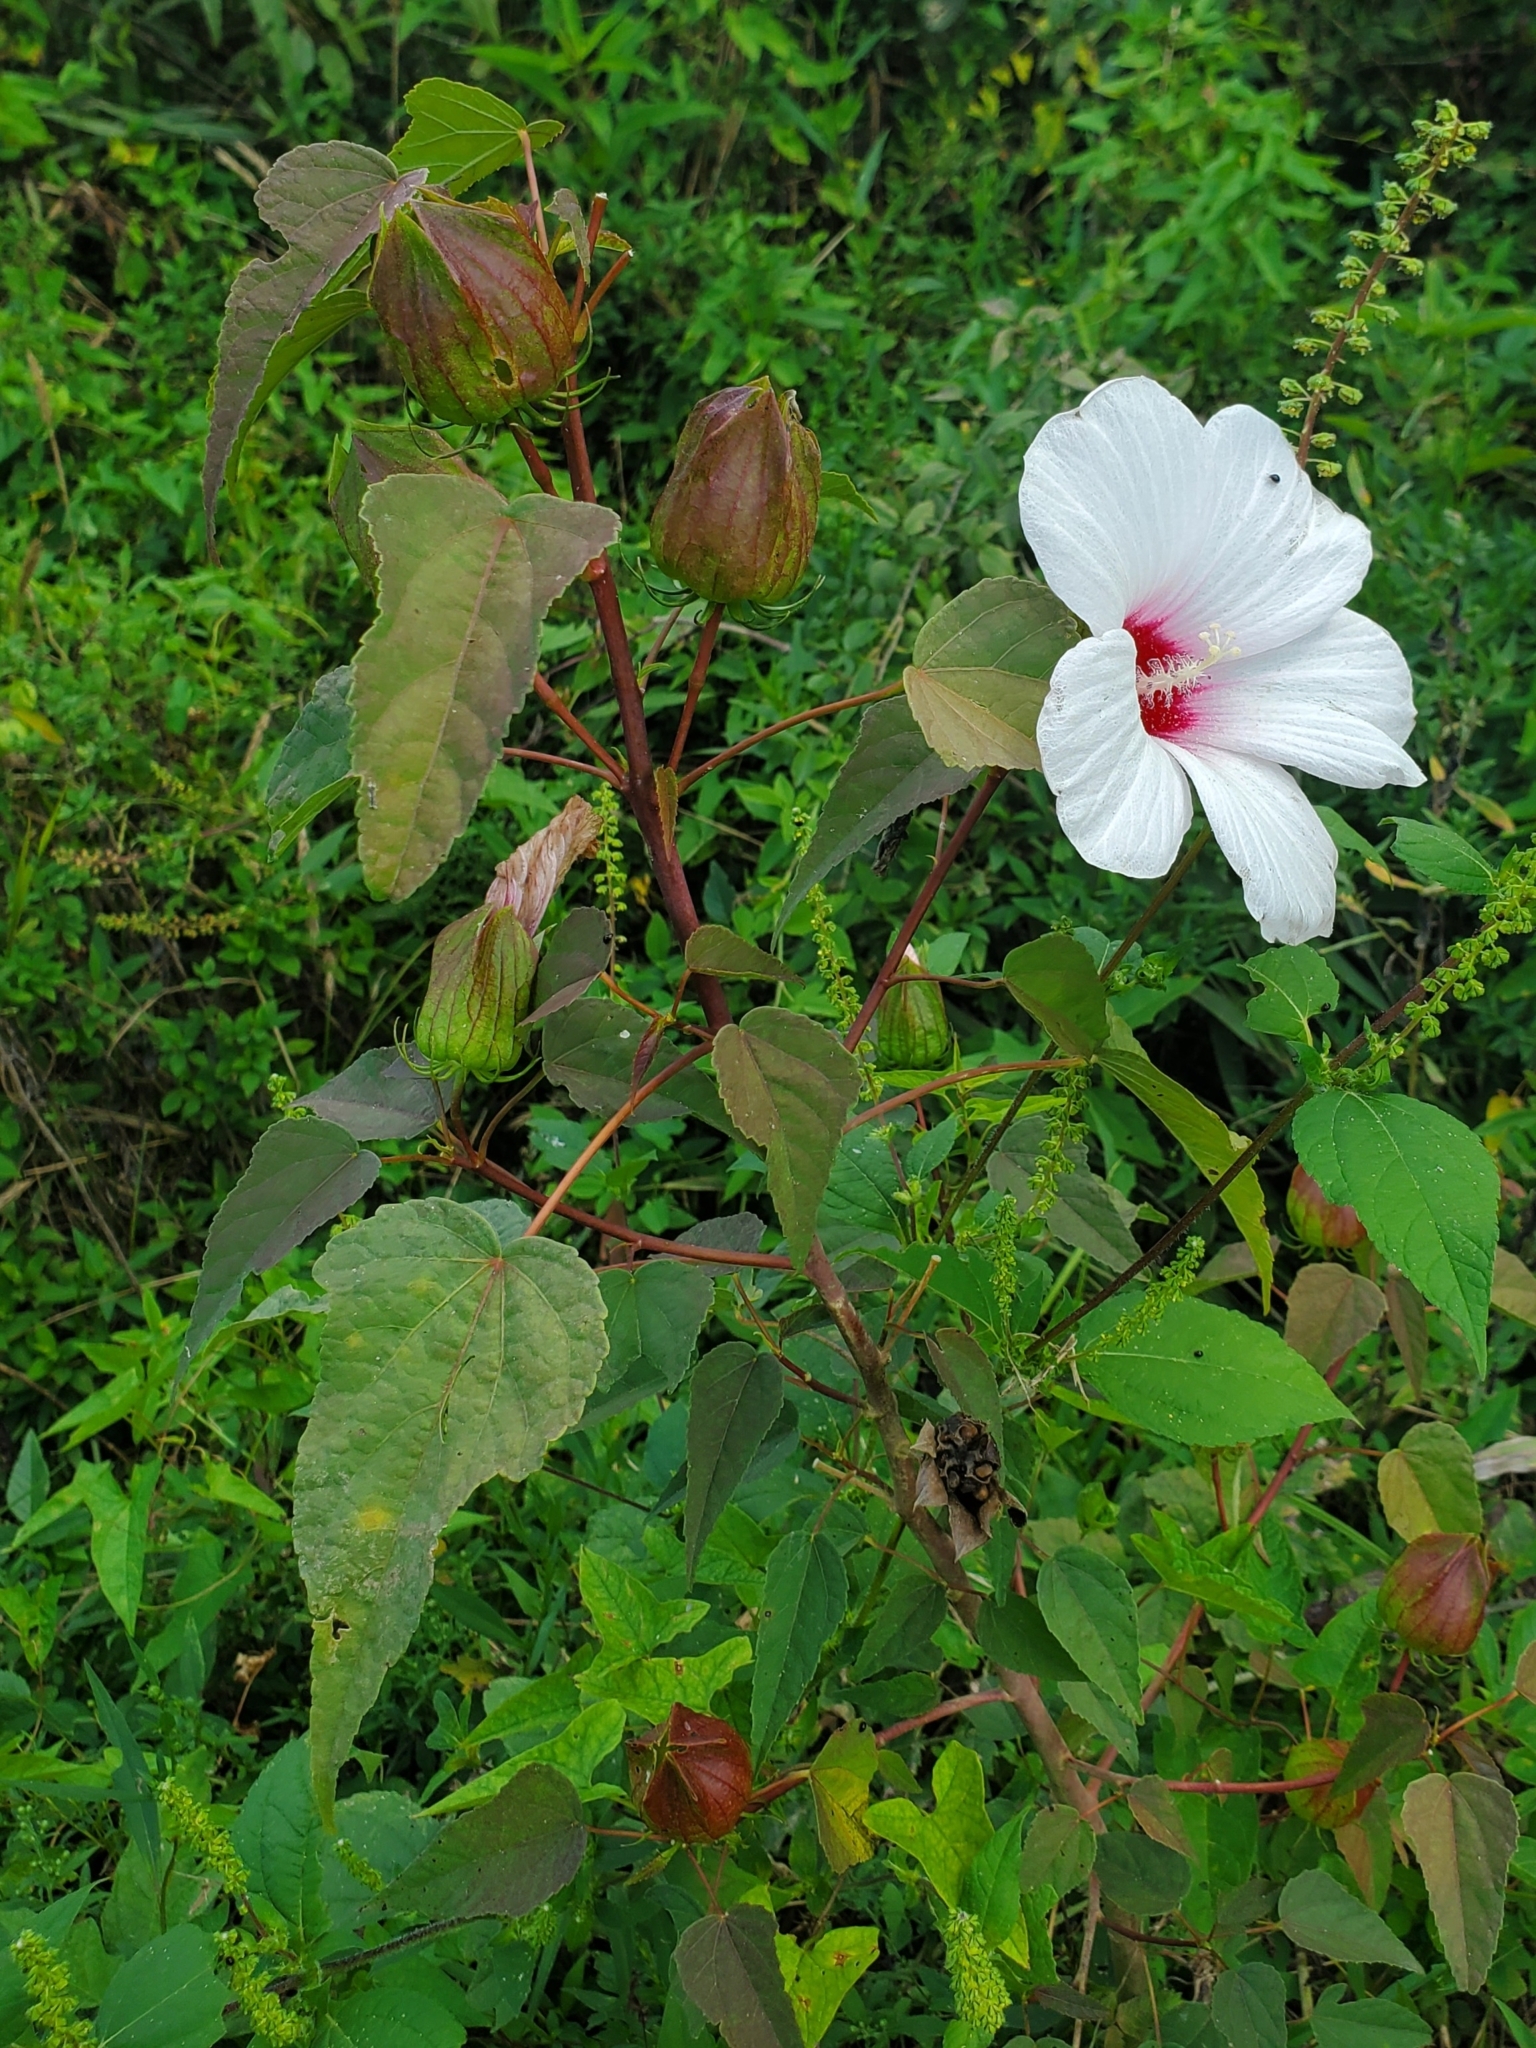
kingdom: Plantae
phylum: Tracheophyta
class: Magnoliopsida
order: Malvales
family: Malvaceae
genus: Hibiscus
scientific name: Hibiscus laevis
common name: Scarlet rose-mallow
